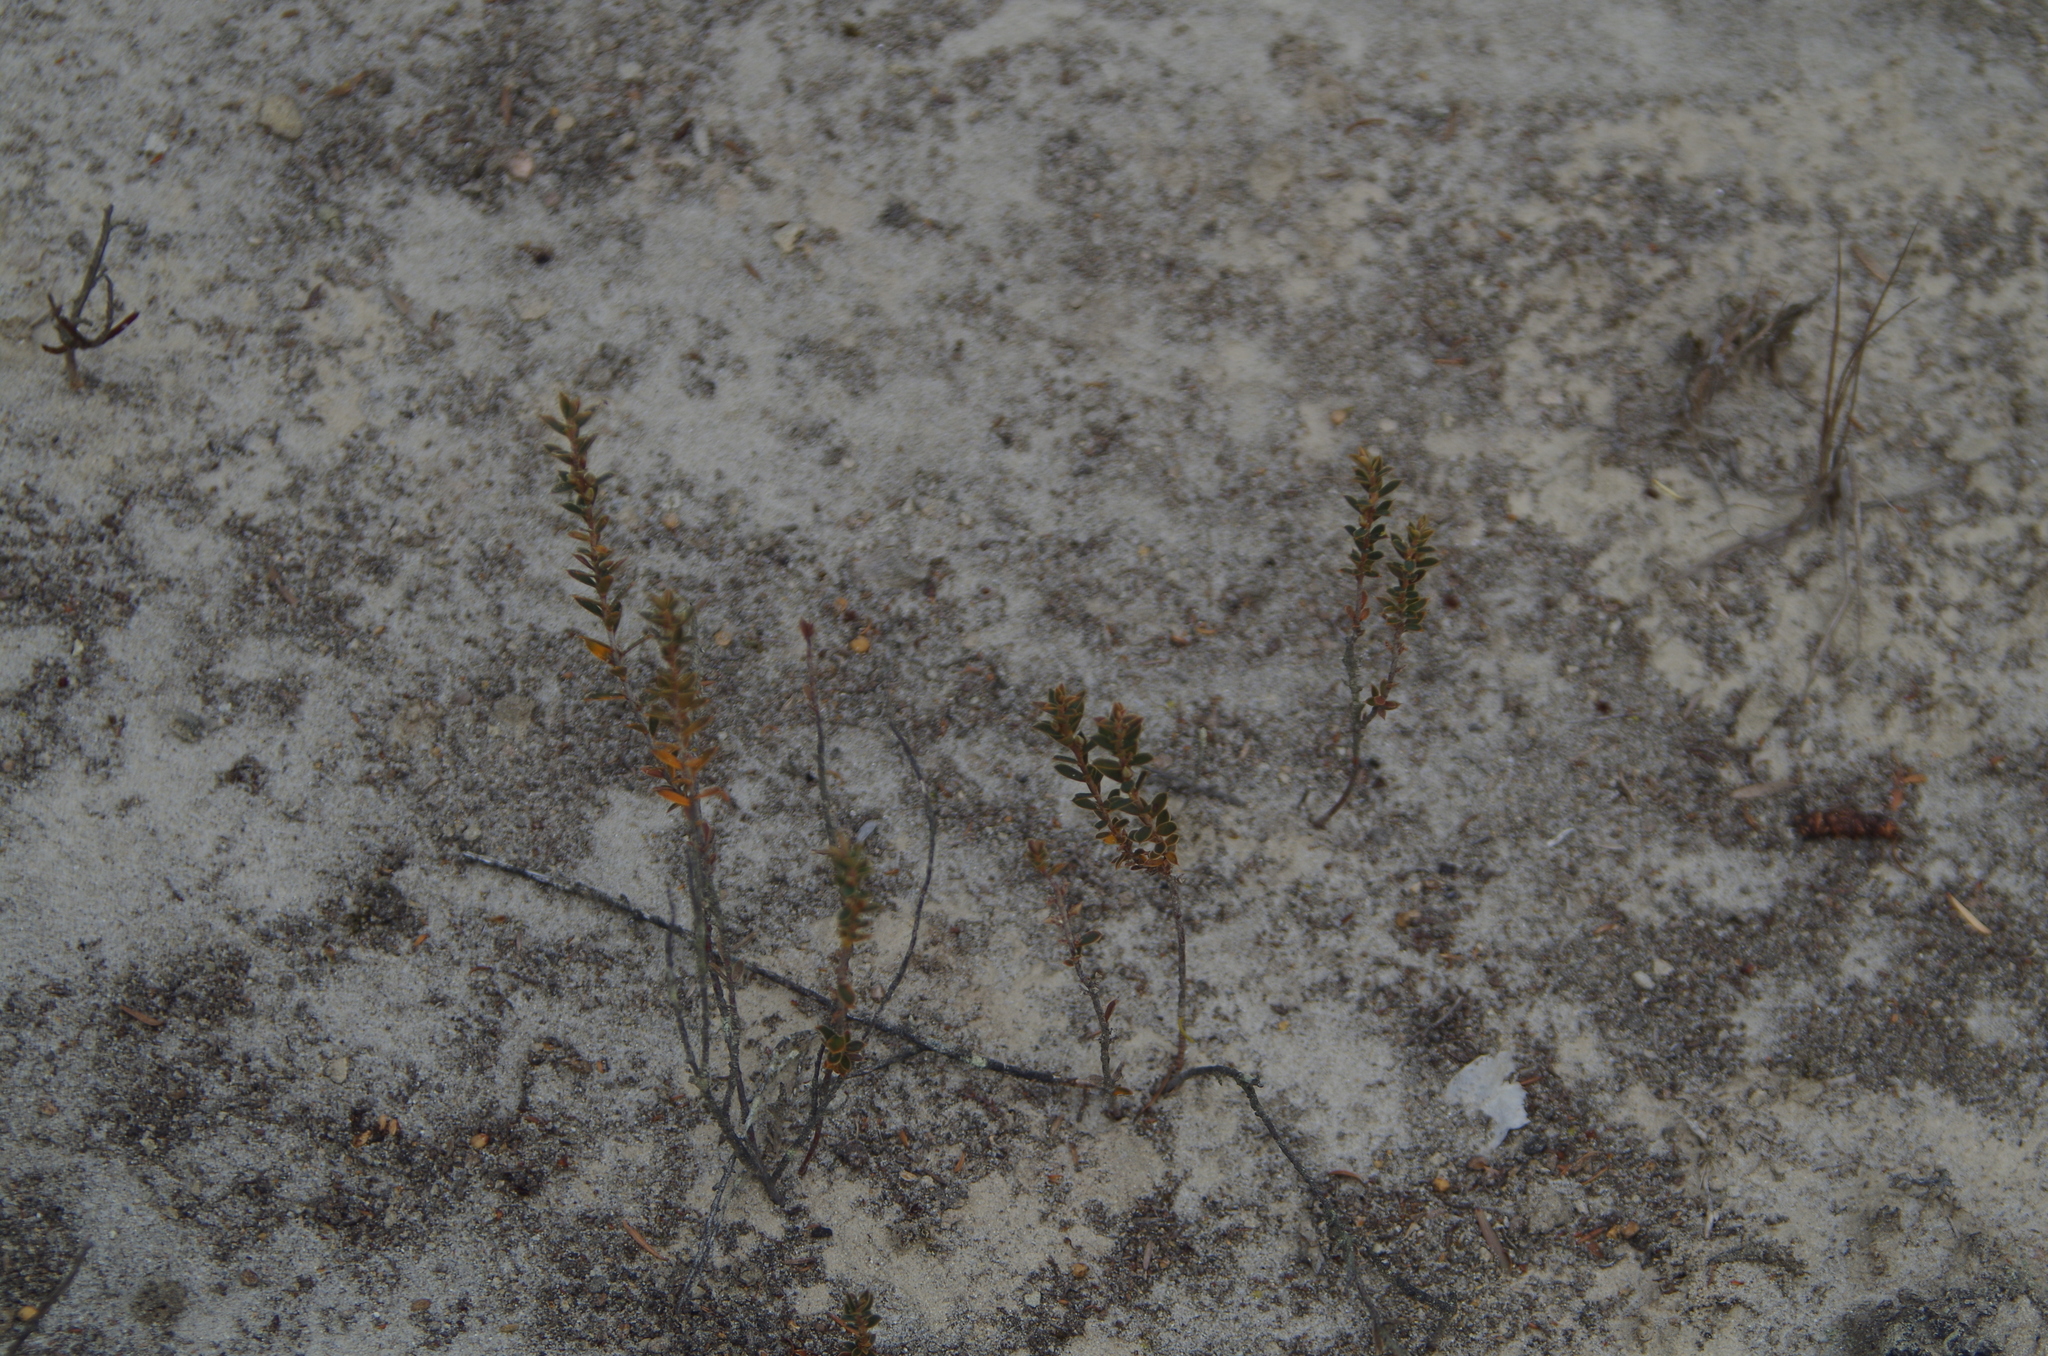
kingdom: Plantae
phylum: Tracheophyta
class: Magnoliopsida
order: Ericales
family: Ericaceae
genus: Styphelia
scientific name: Styphelia nesophila
